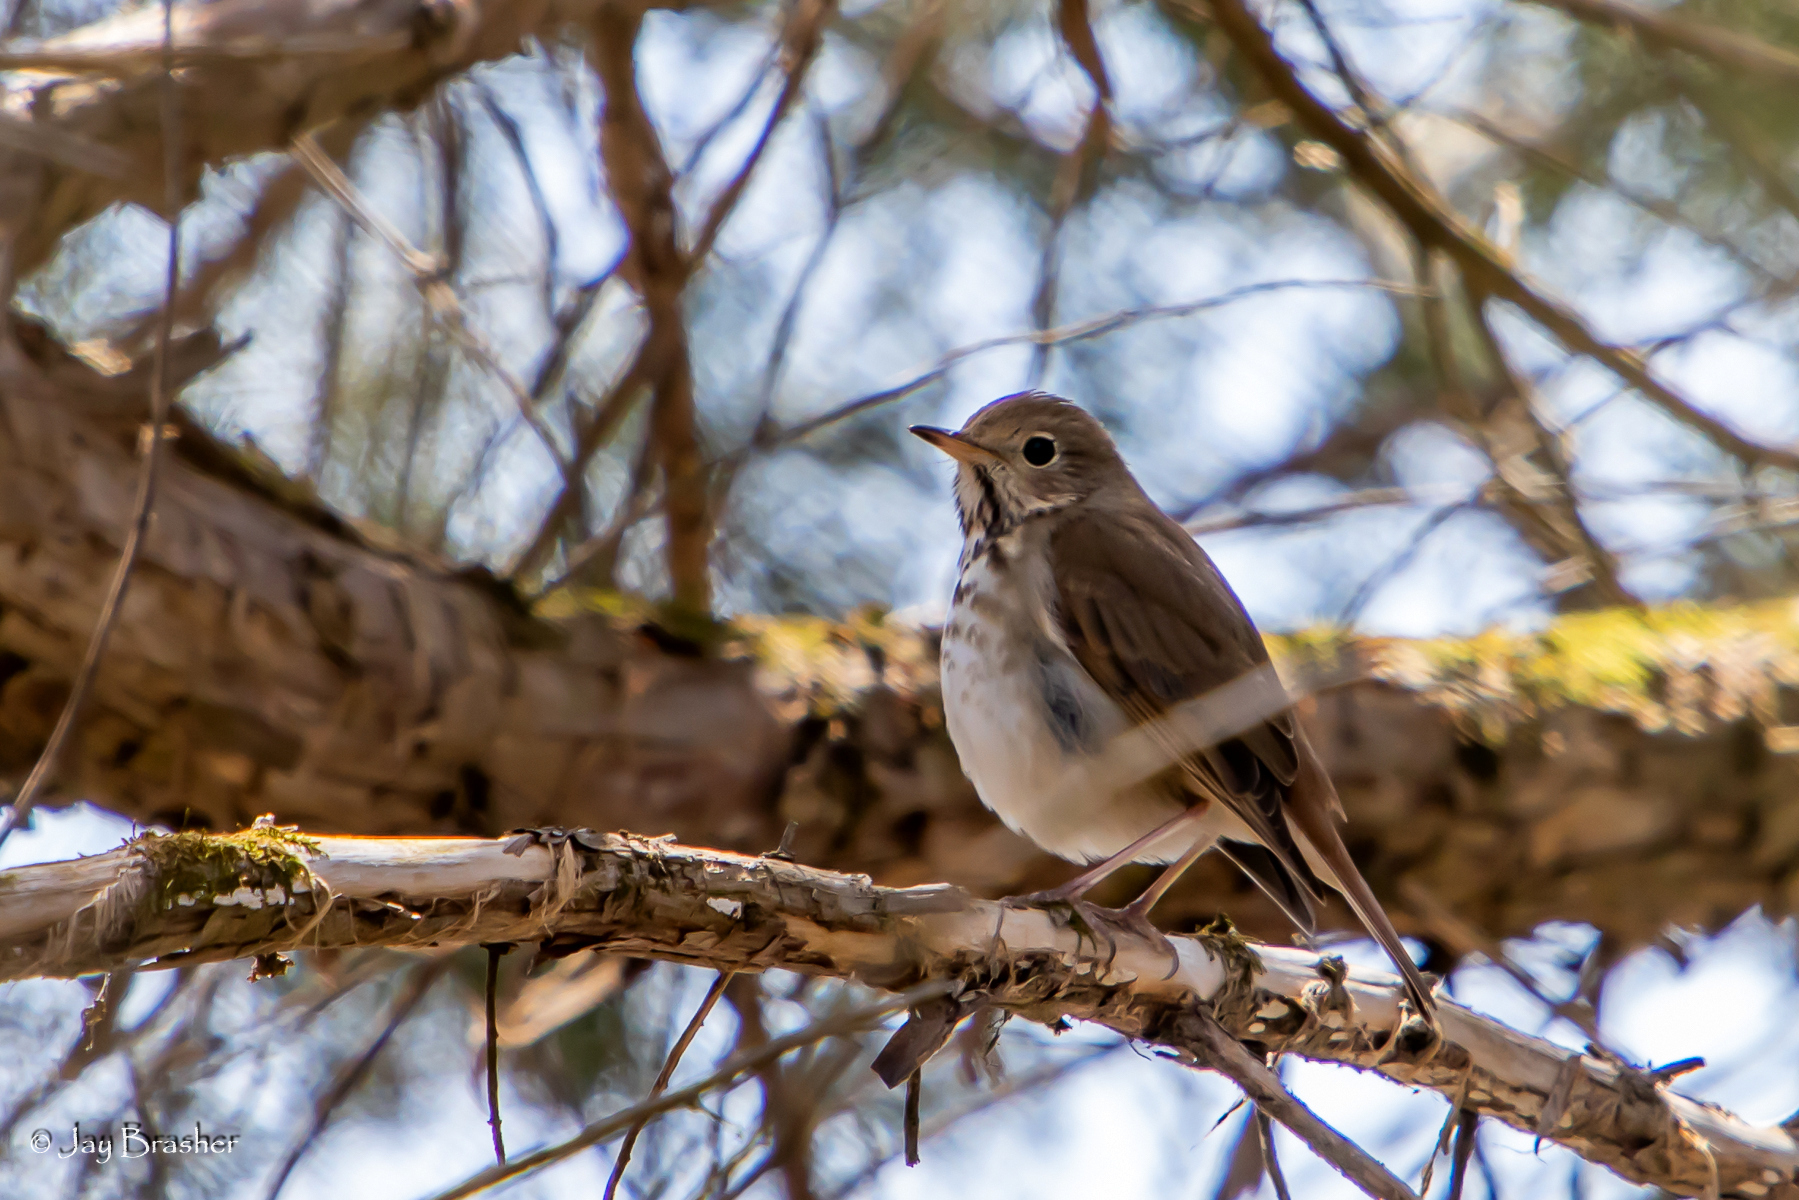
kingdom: Animalia
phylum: Chordata
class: Aves
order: Passeriformes
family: Turdidae
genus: Catharus
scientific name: Catharus guttatus
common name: Hermit thrush
